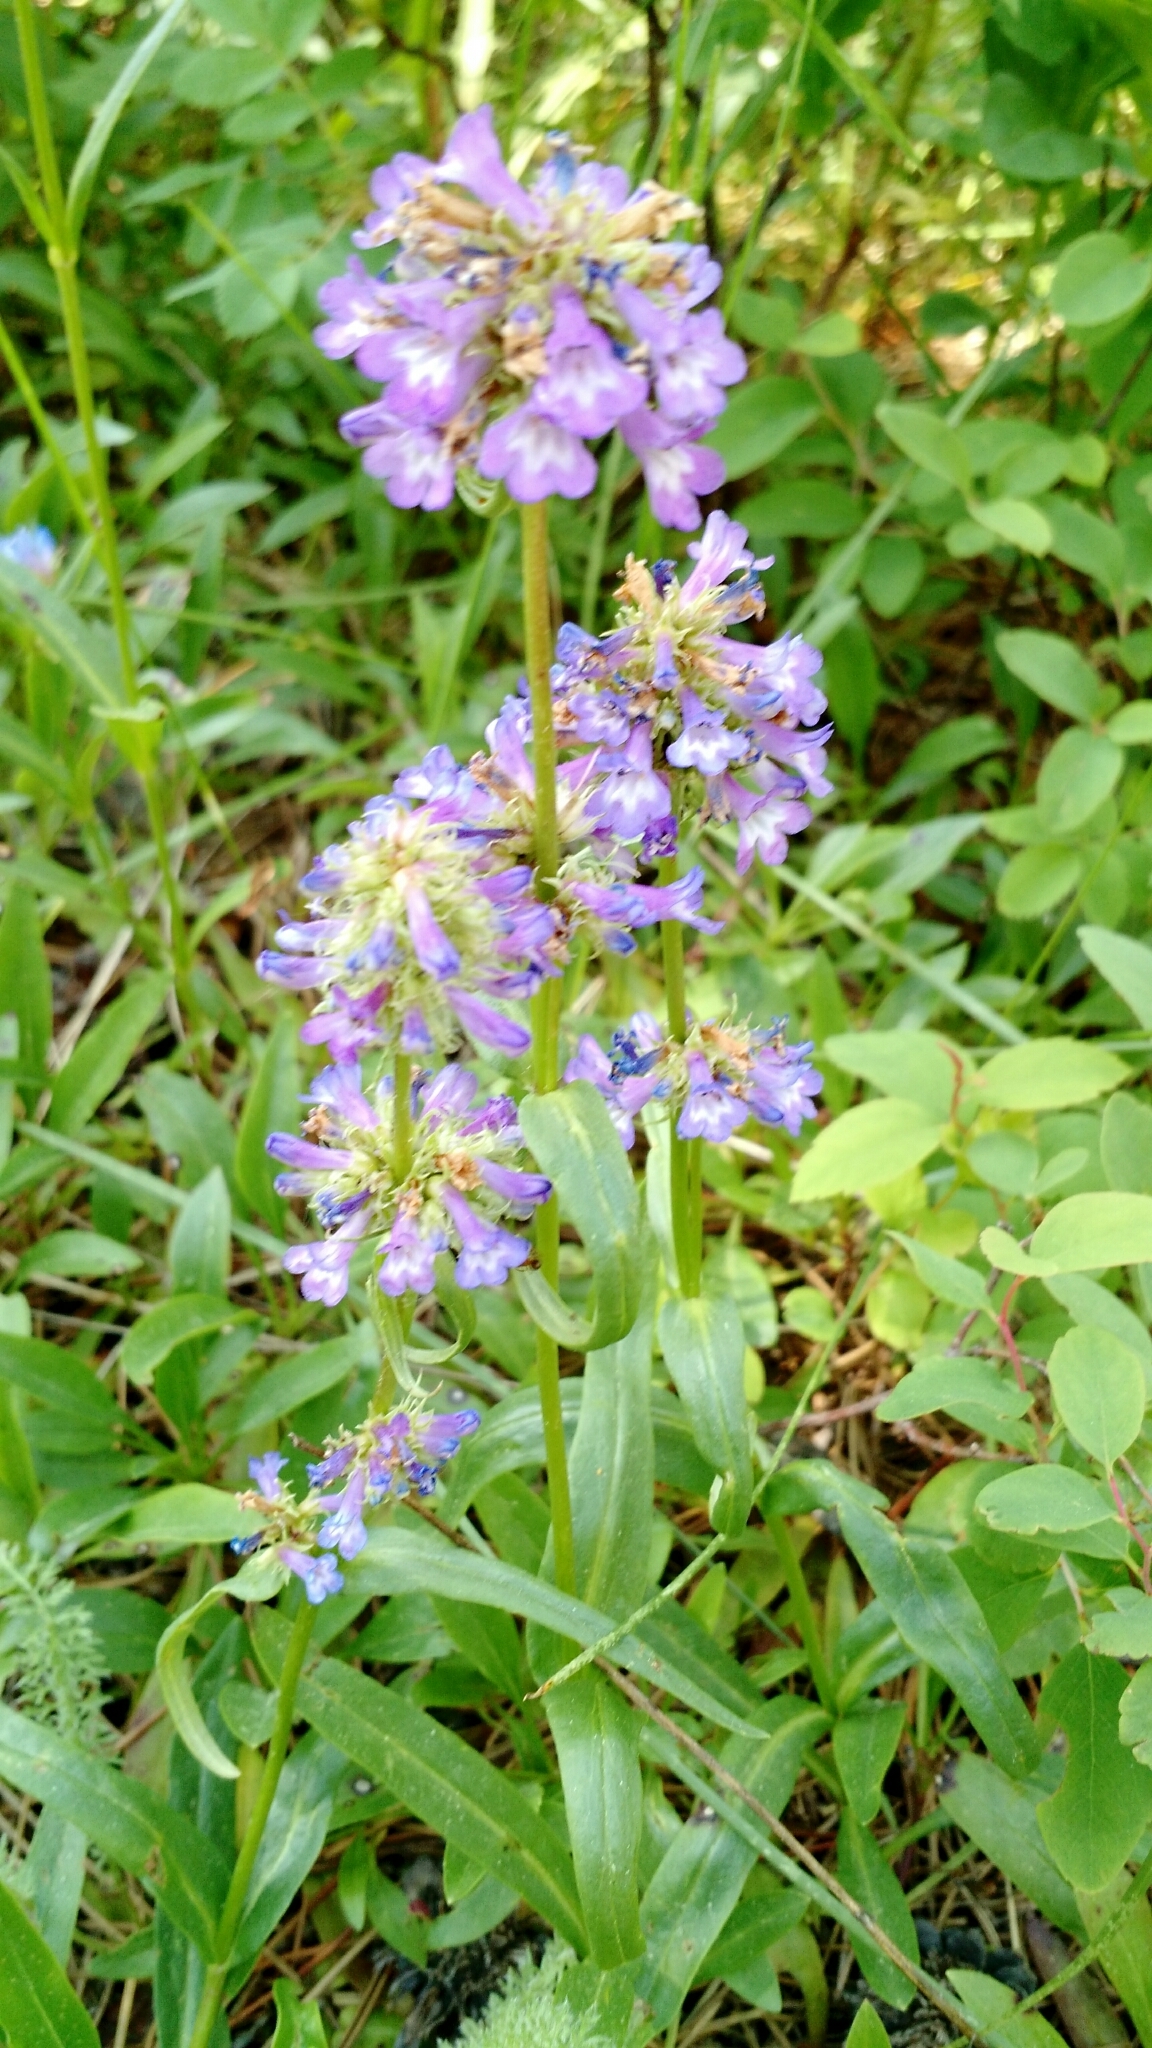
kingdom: Plantae
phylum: Tracheophyta
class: Magnoliopsida
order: Lamiales
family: Plantaginaceae
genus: Penstemon
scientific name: Penstemon procerus
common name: Small-flower penstemon
